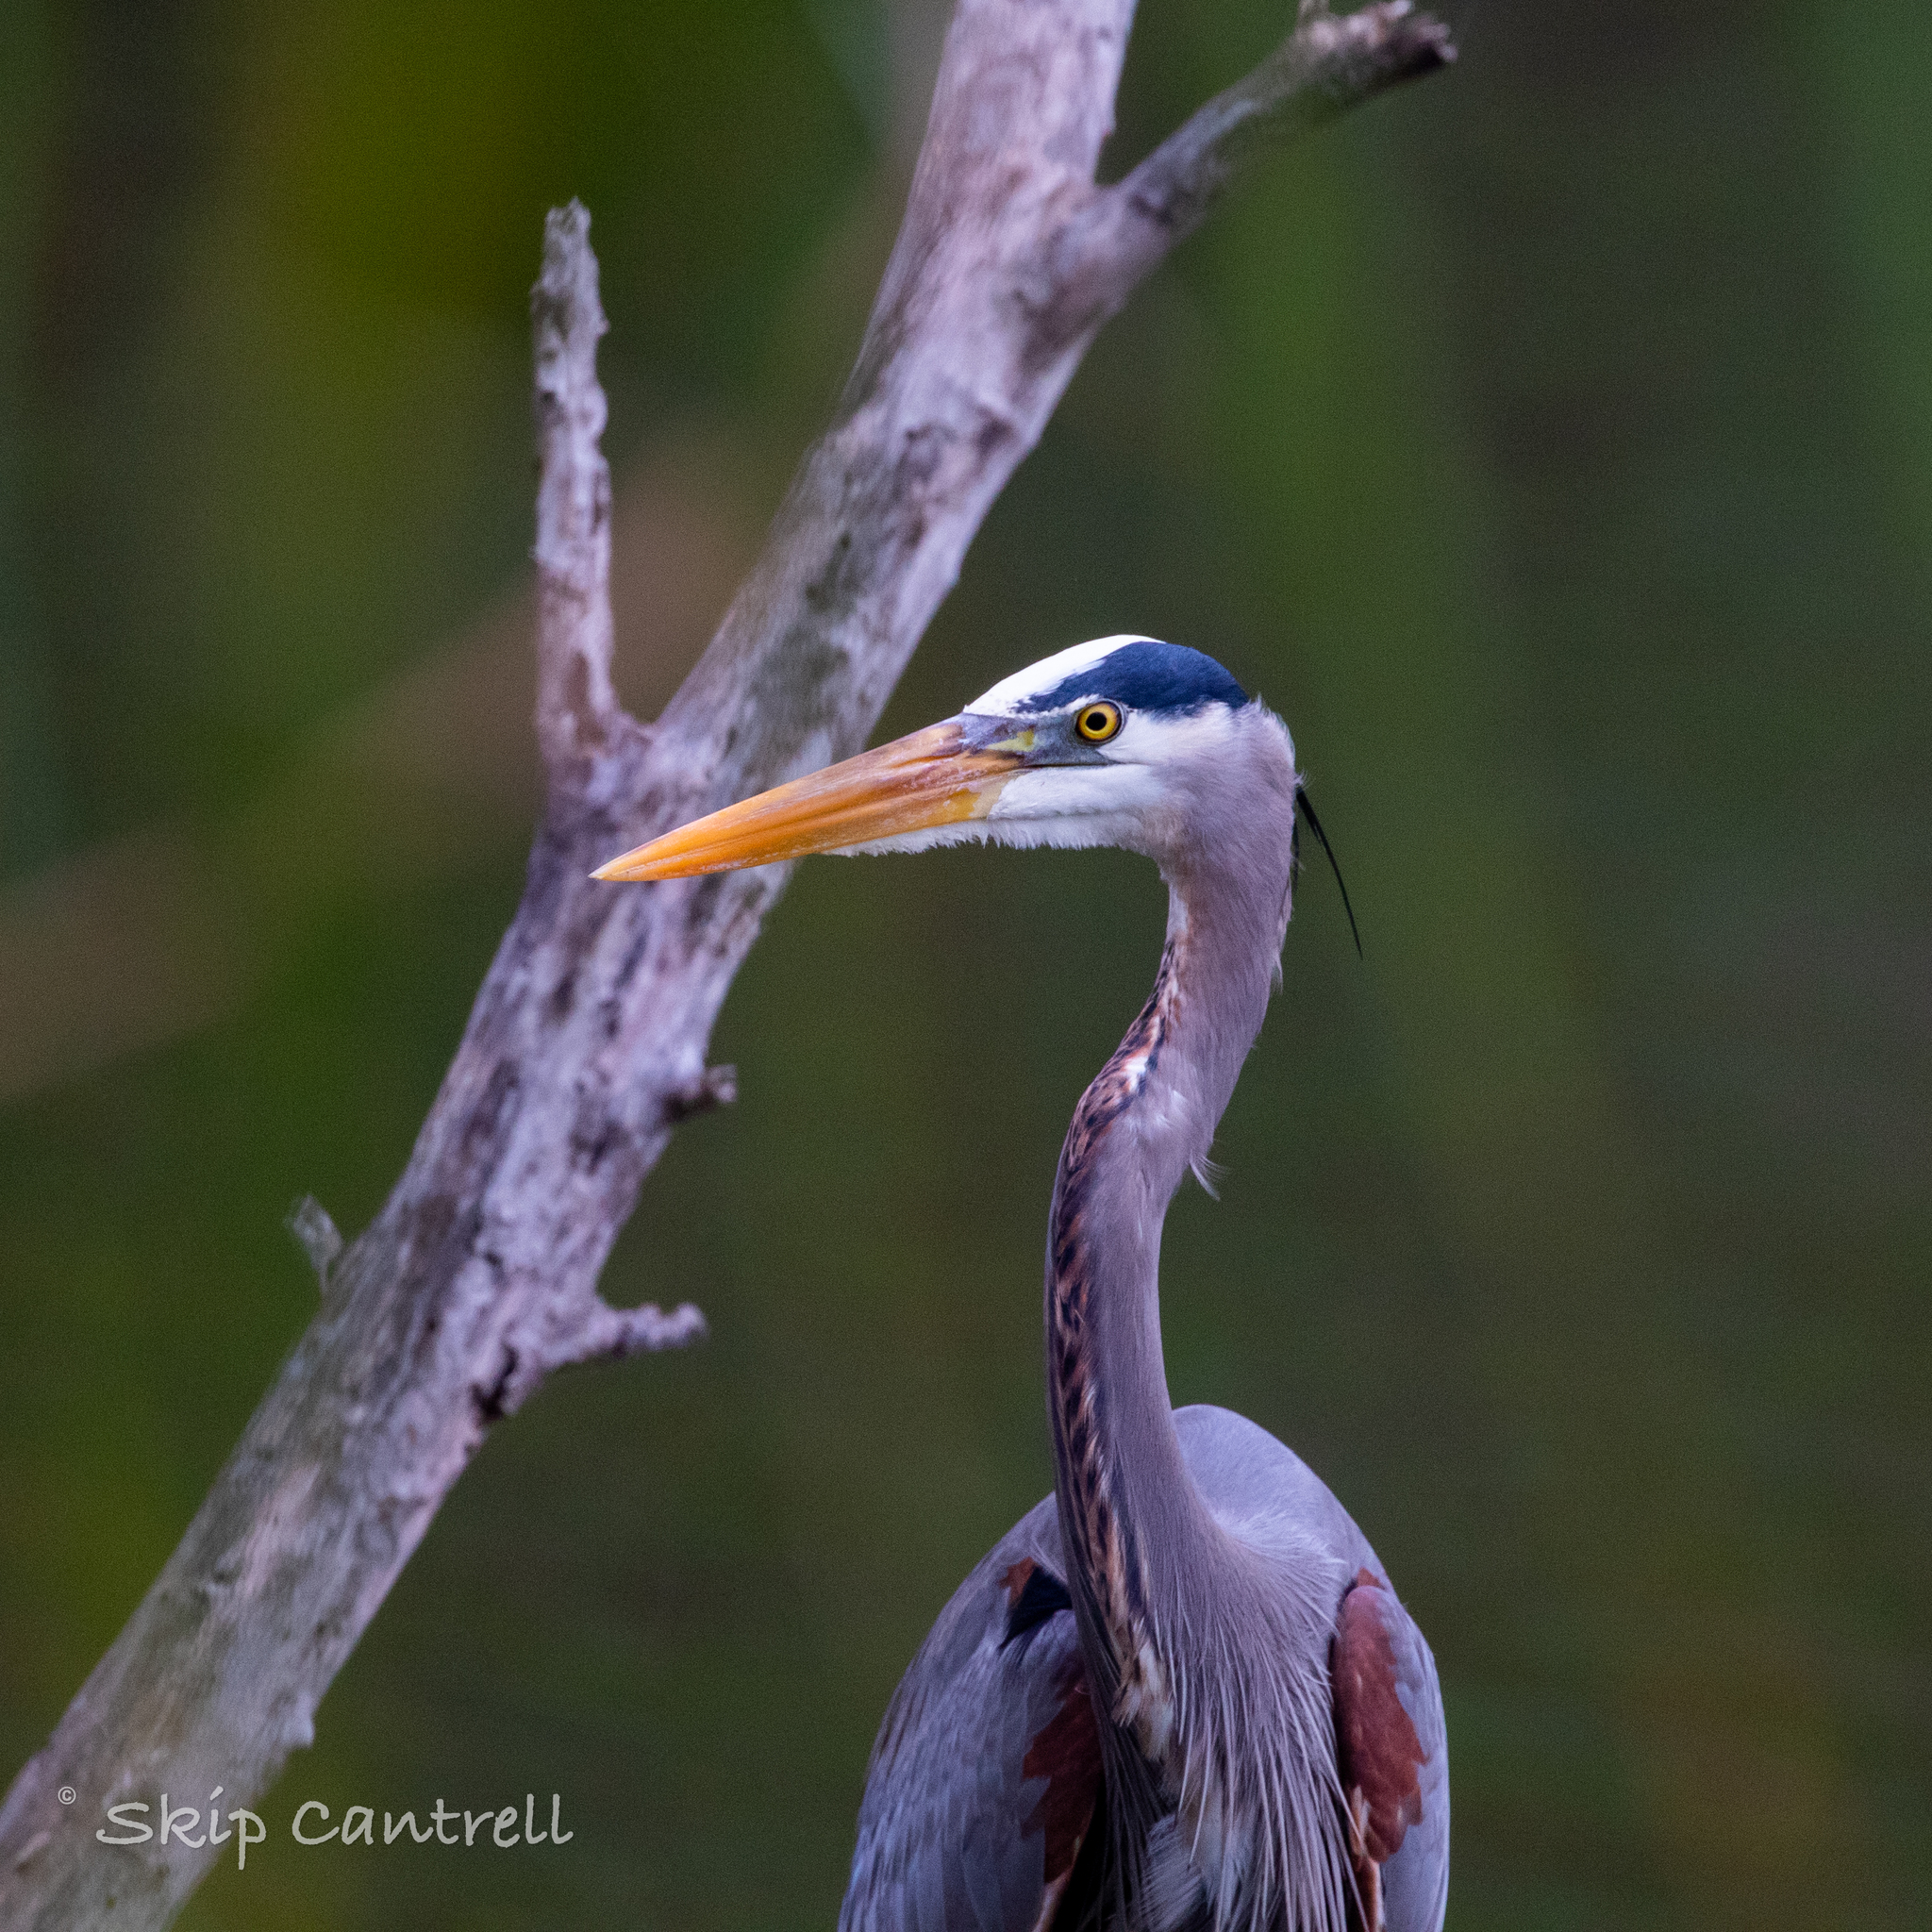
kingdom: Animalia
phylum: Chordata
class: Aves
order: Pelecaniformes
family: Ardeidae
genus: Ardea
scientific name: Ardea herodias
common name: Great blue heron
